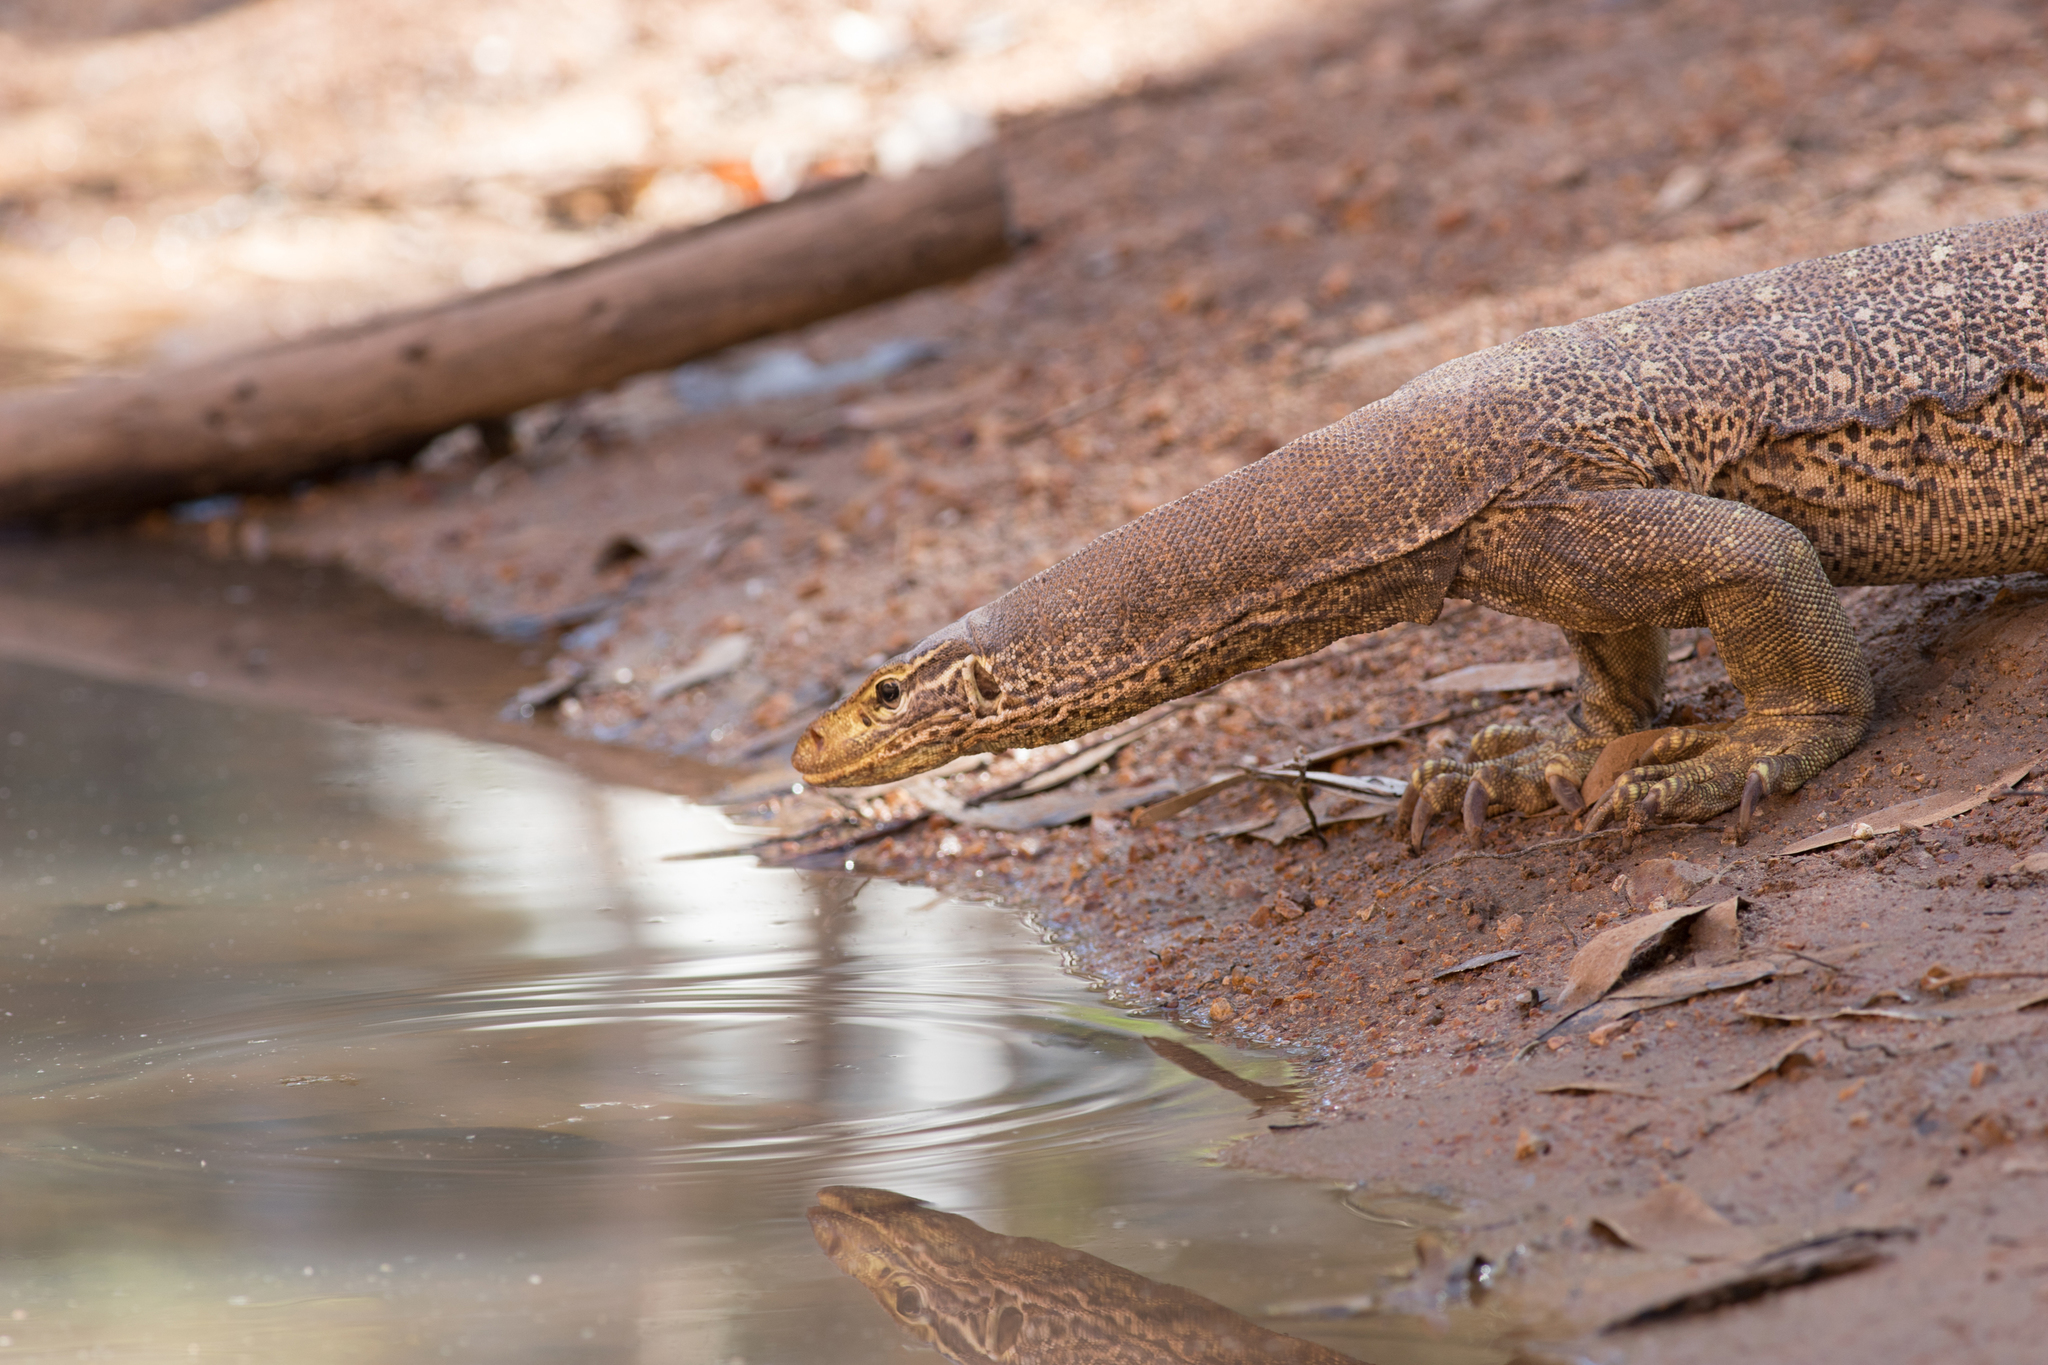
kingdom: Animalia
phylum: Chordata
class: Squamata
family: Varanidae
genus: Varanus
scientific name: Varanus panoptes
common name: Yellow-spotted monitor
